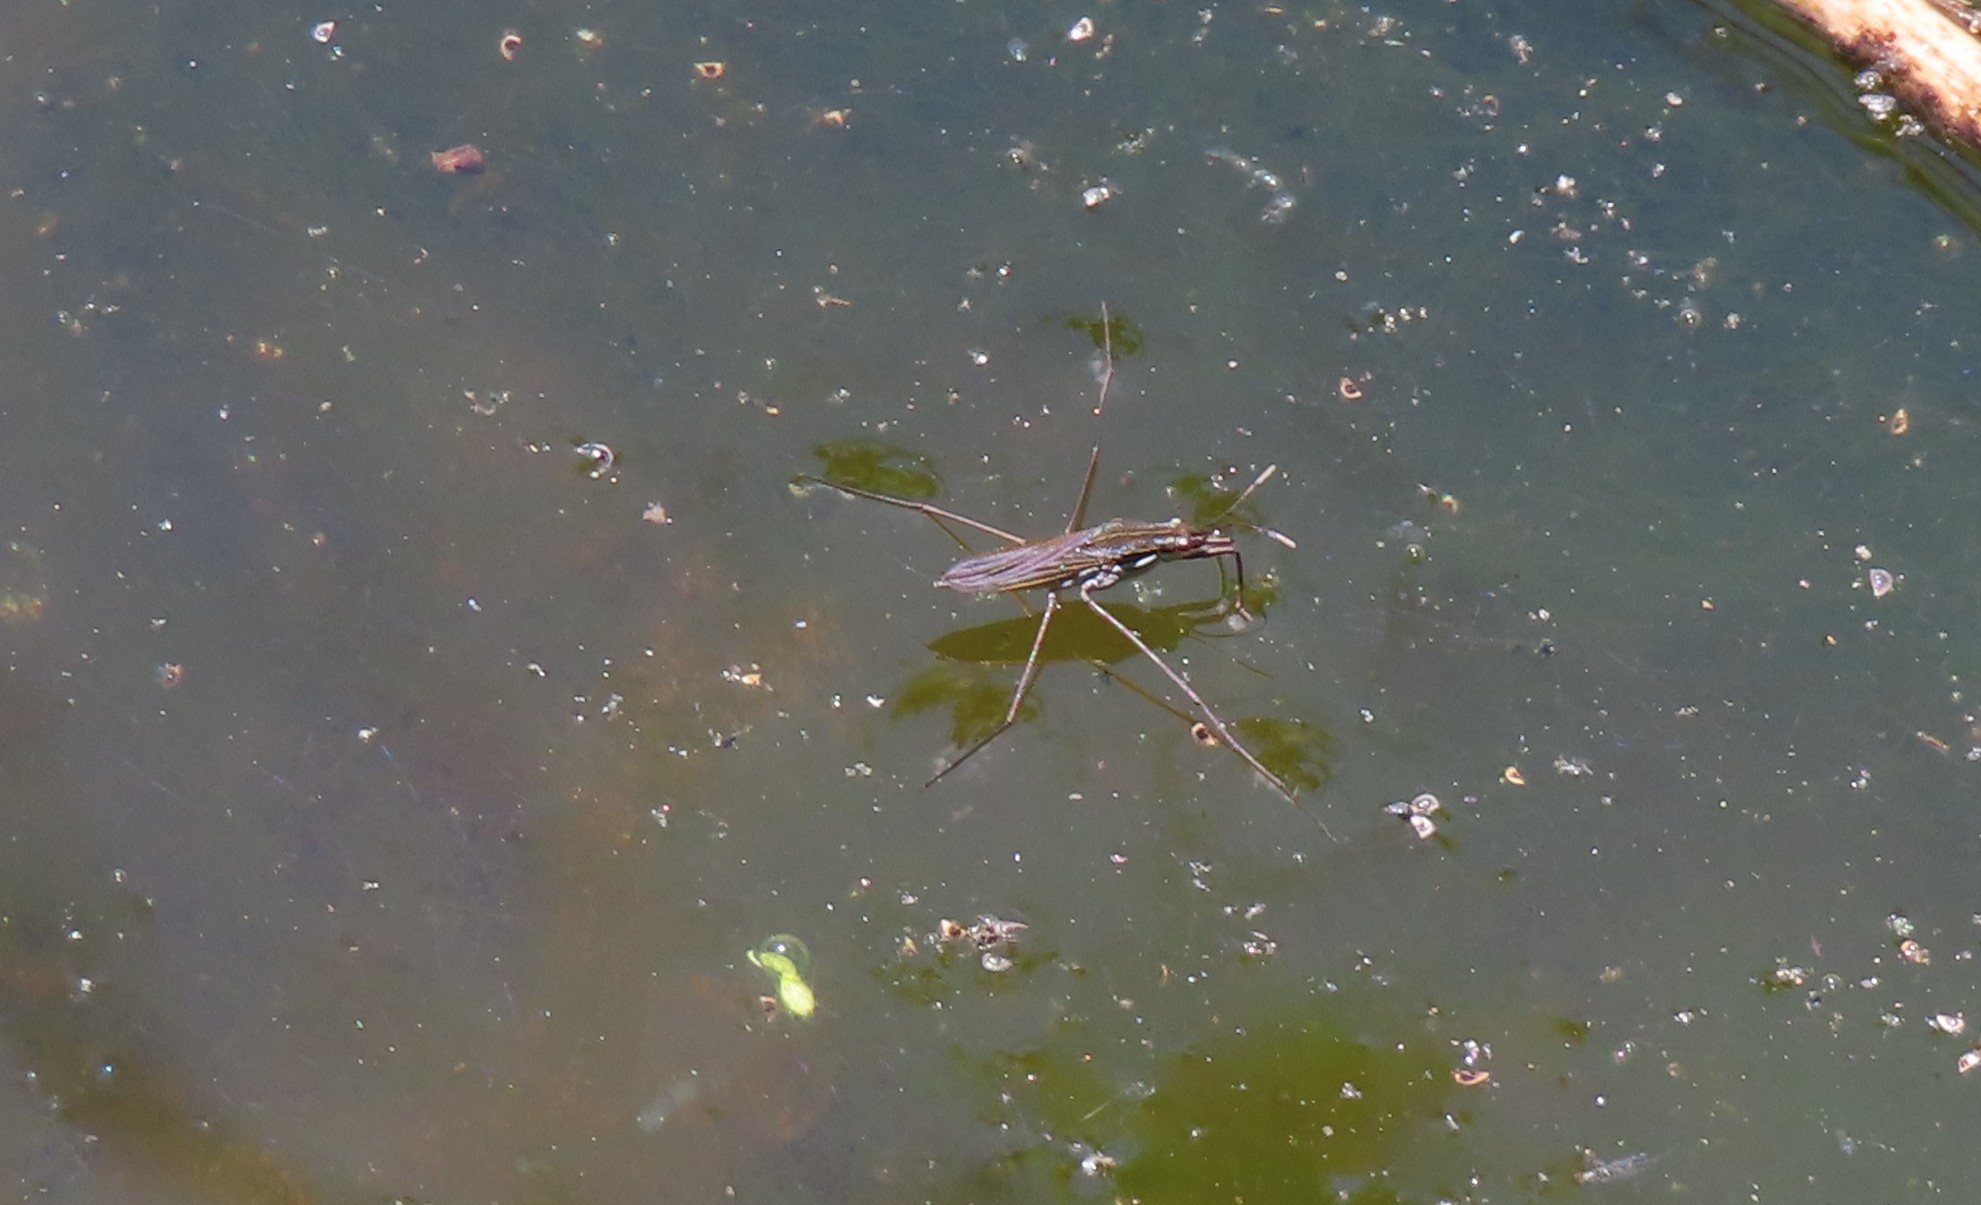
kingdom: Animalia
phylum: Arthropoda
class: Insecta
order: Hemiptera
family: Gerridae
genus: Gerris
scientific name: Gerris
